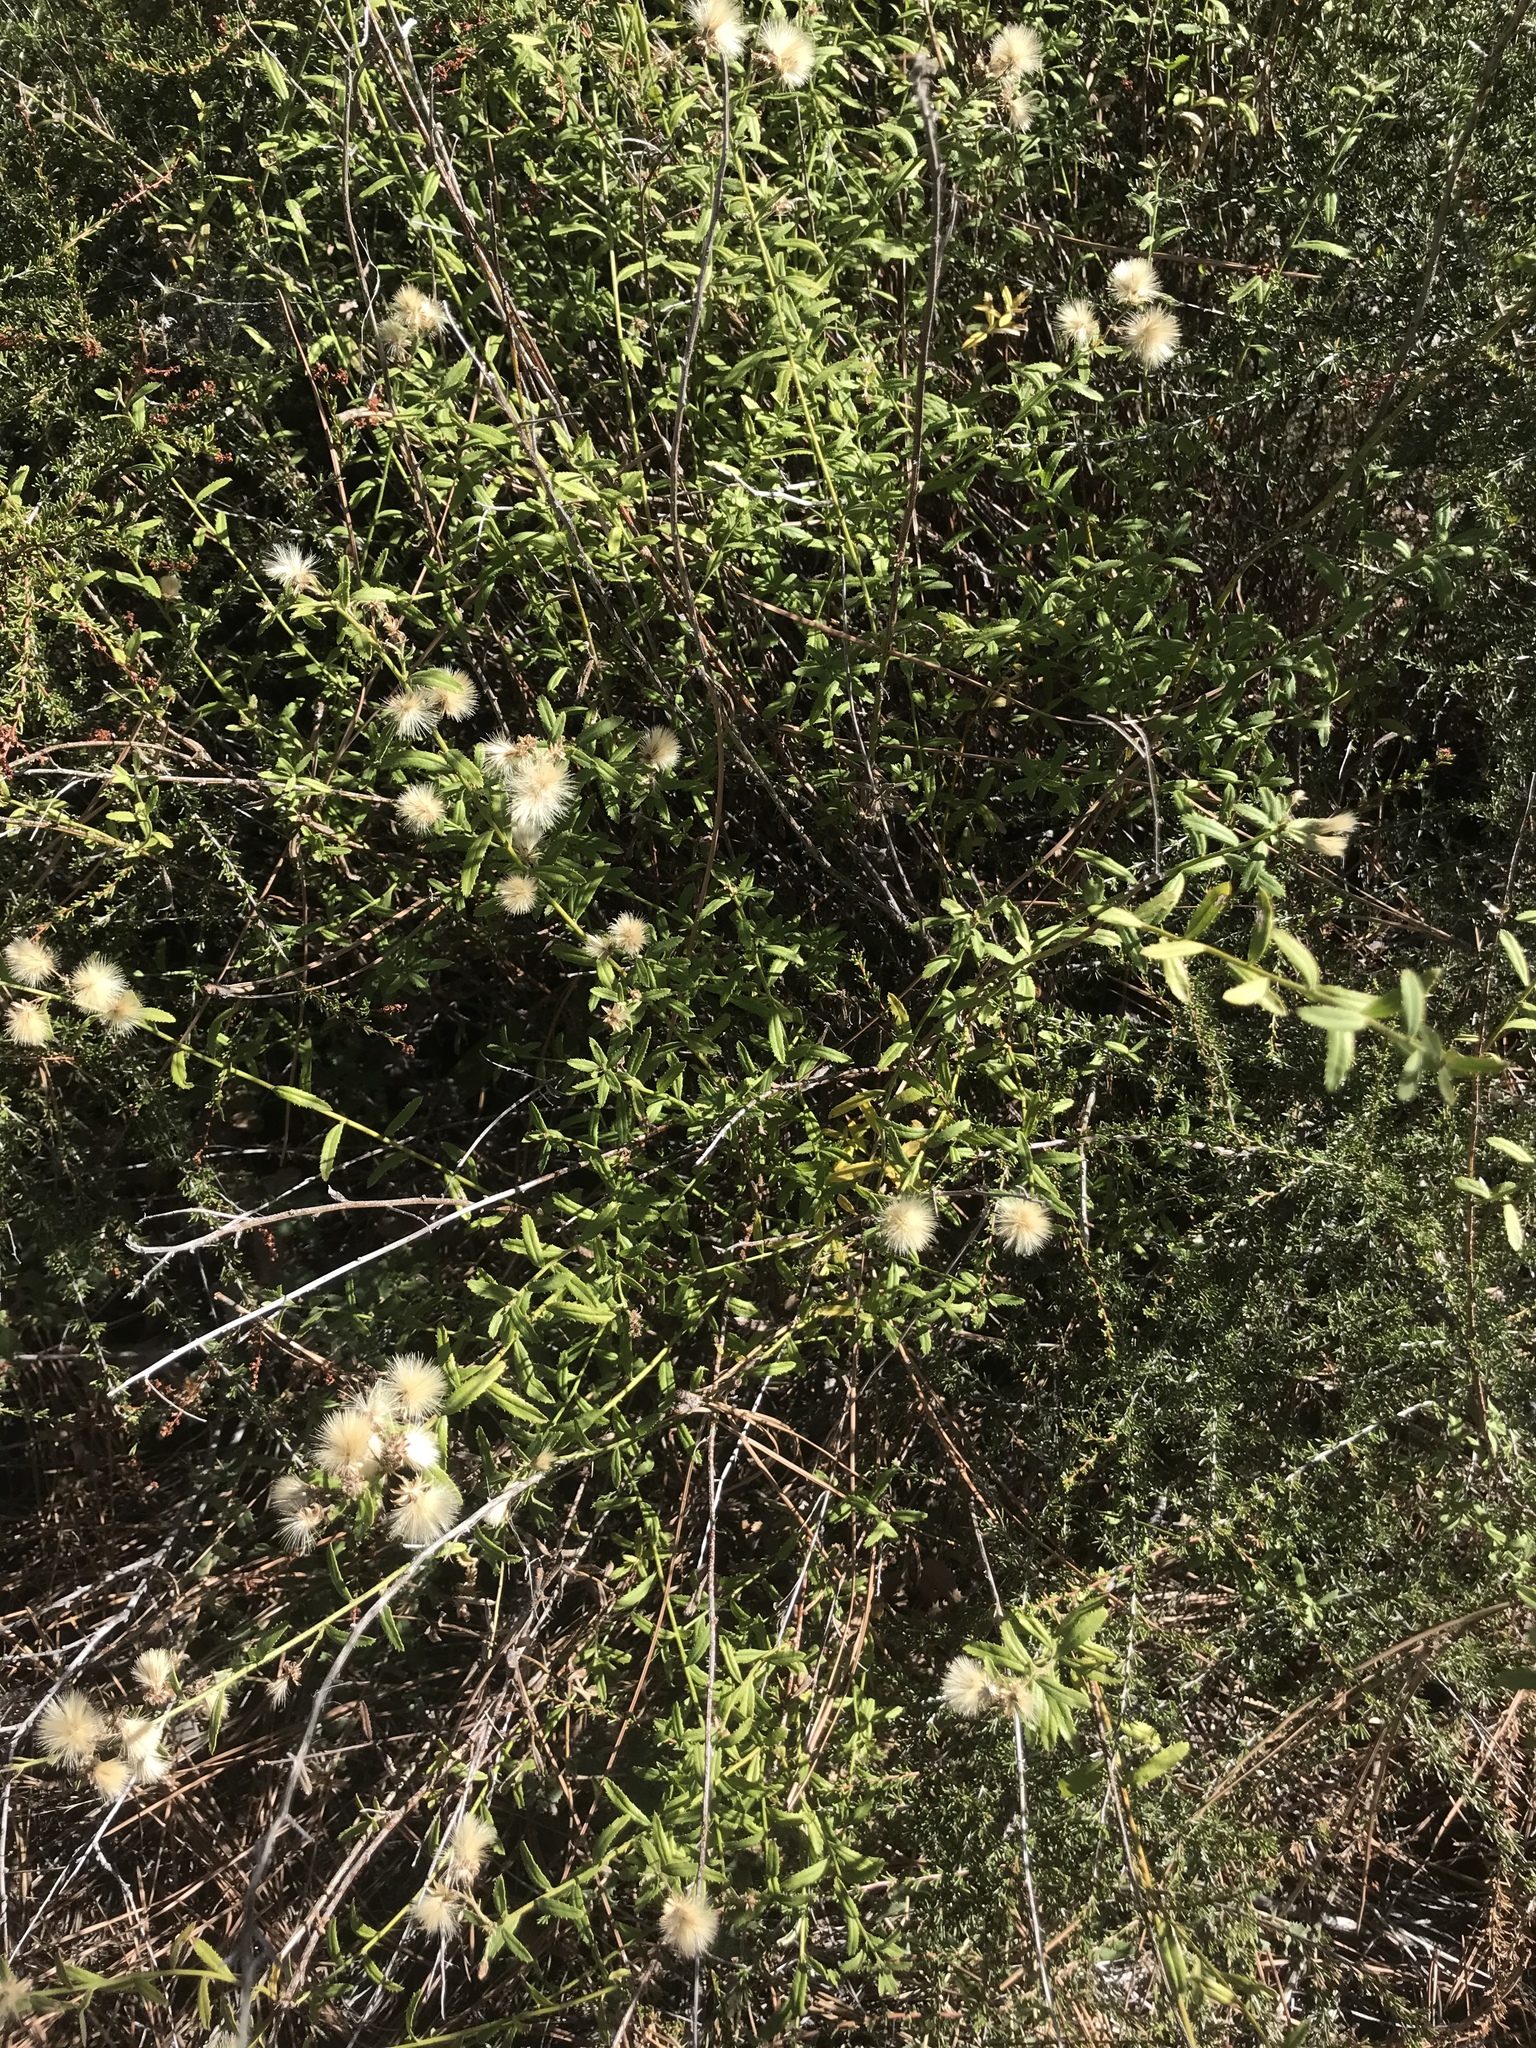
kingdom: Plantae
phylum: Tracheophyta
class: Magnoliopsida
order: Asterales
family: Asteraceae
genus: Baccharis
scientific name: Baccharis plummerae
